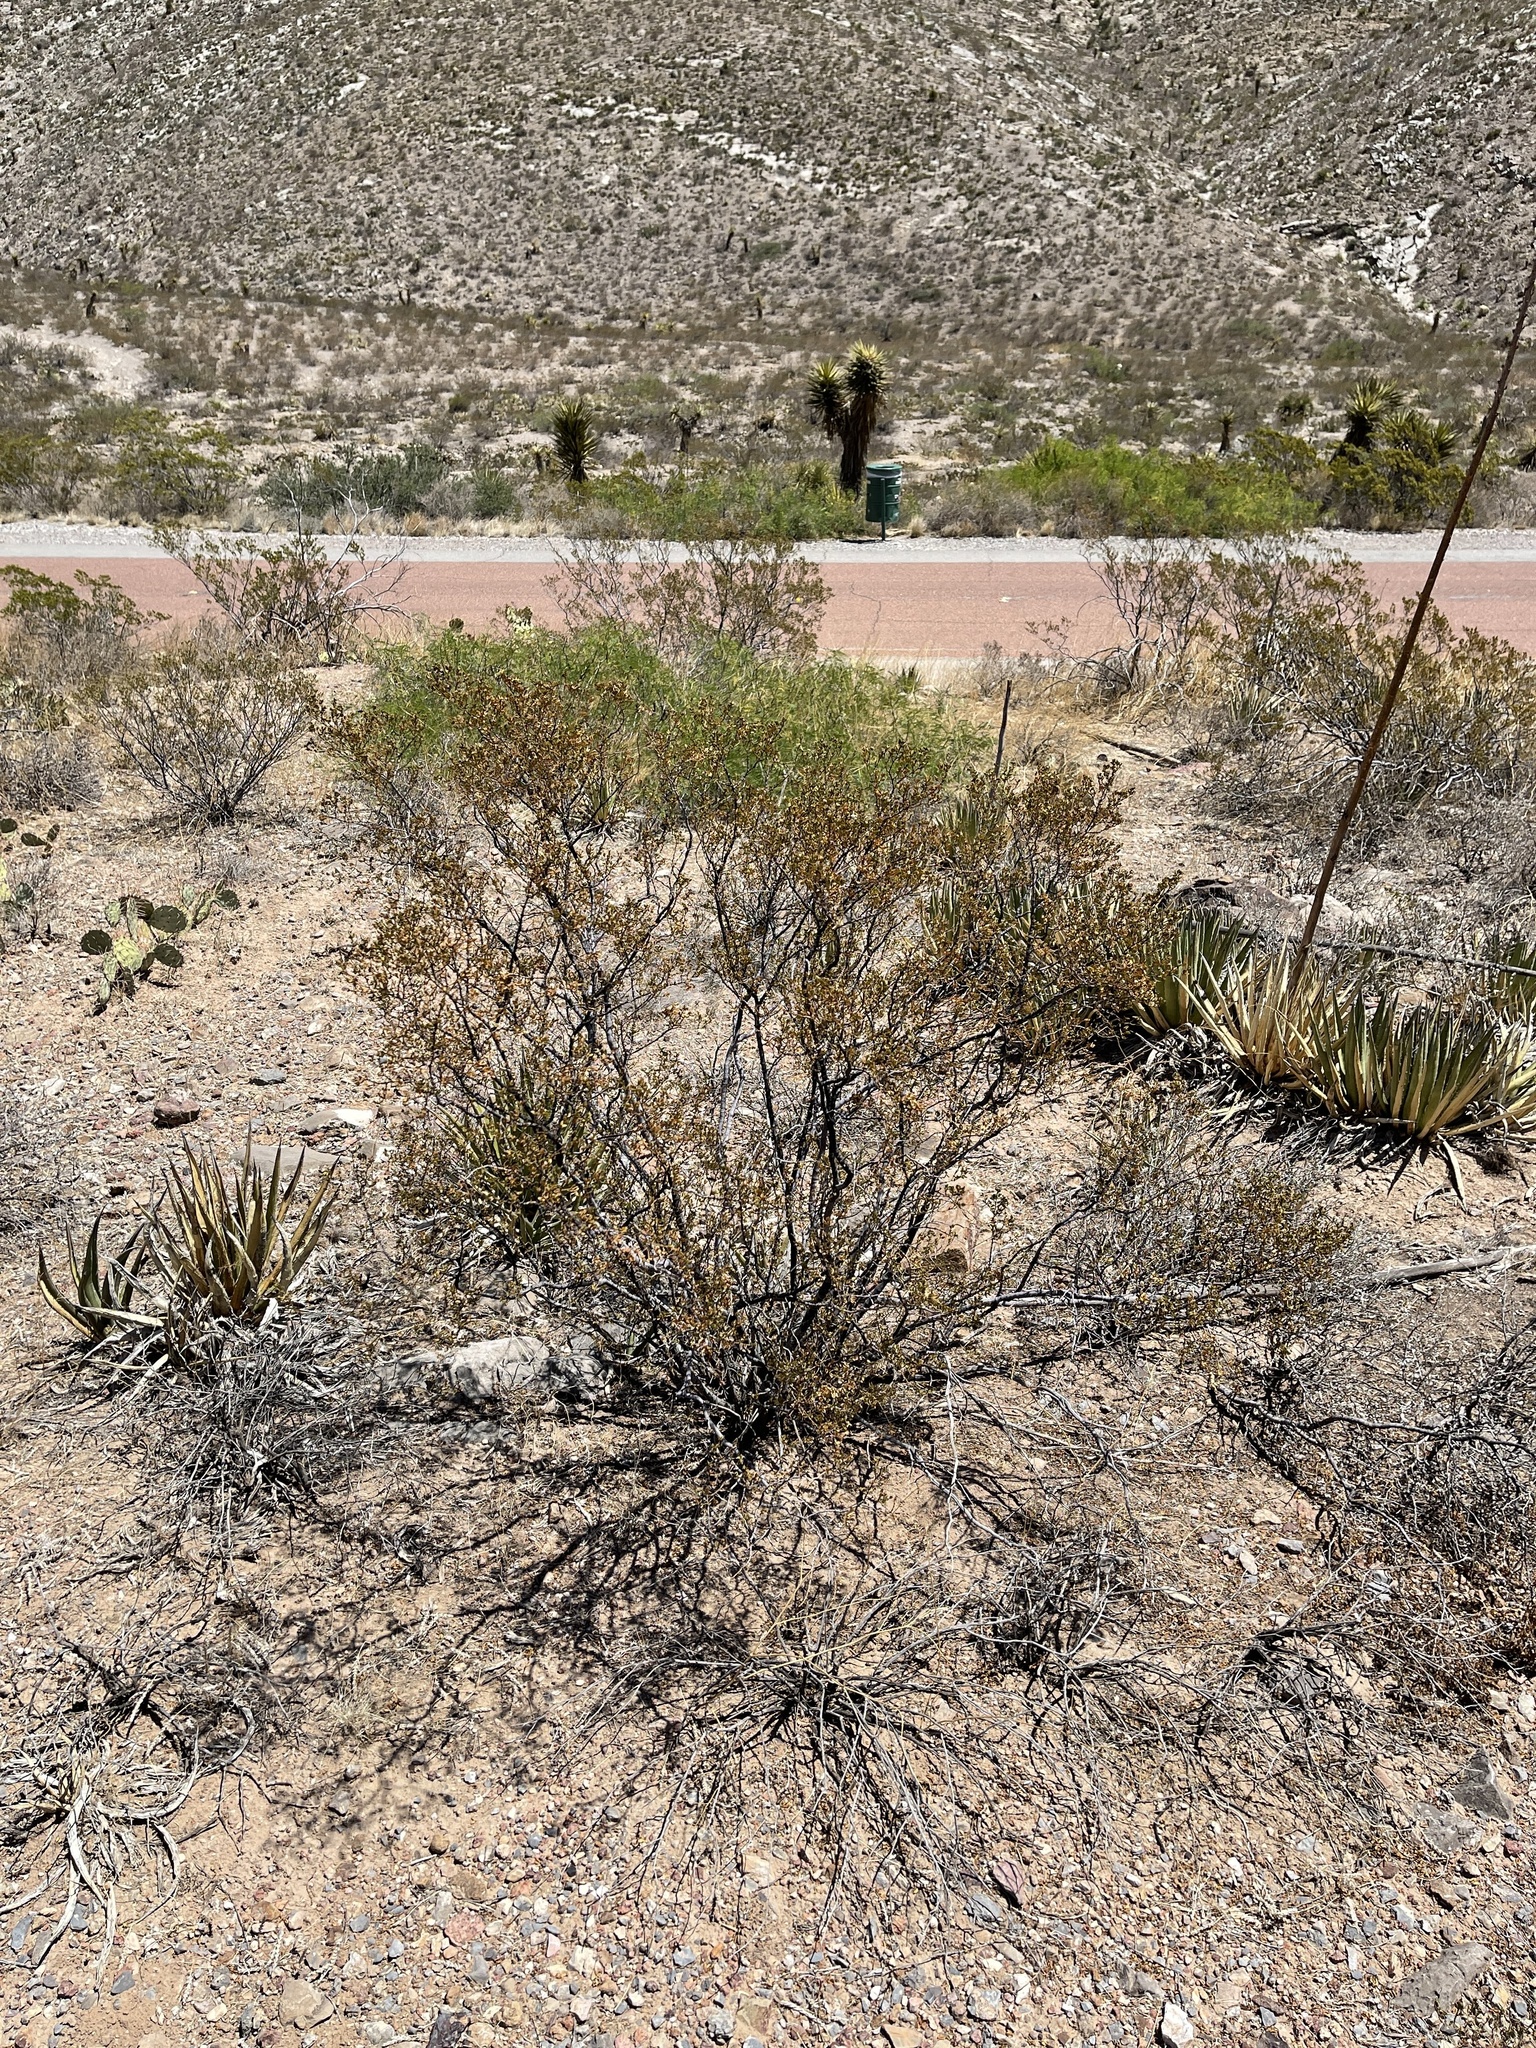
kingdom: Plantae
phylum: Tracheophyta
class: Magnoliopsida
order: Zygophyllales
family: Zygophyllaceae
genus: Larrea
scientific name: Larrea tridentata
